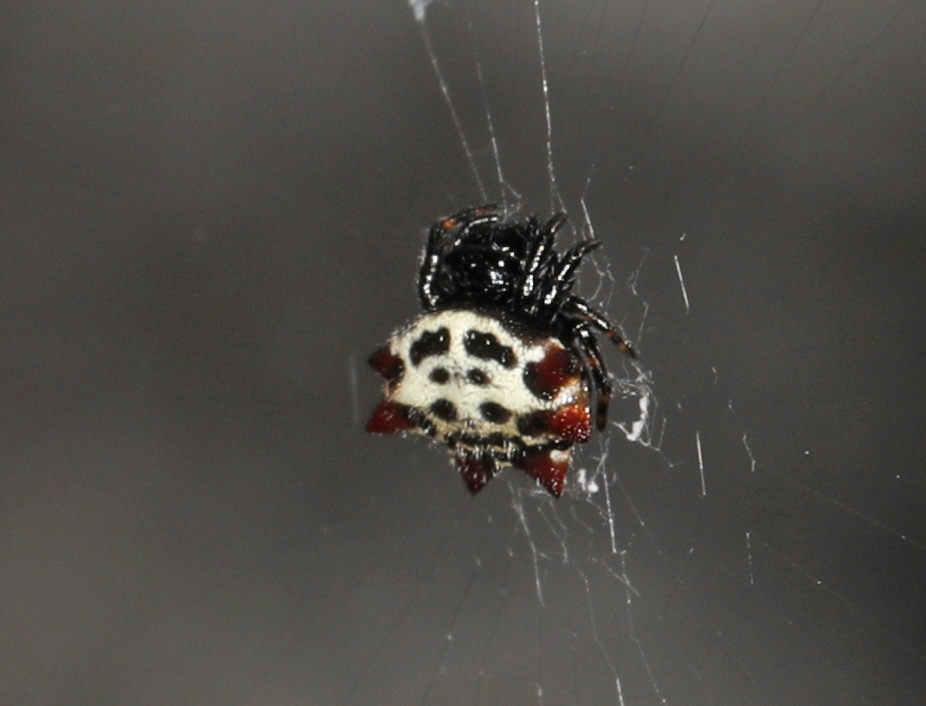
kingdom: Animalia
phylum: Arthropoda
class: Arachnida
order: Araneae
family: Araneidae
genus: Gasteracantha
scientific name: Gasteracantha cancriformis
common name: Orb weavers
